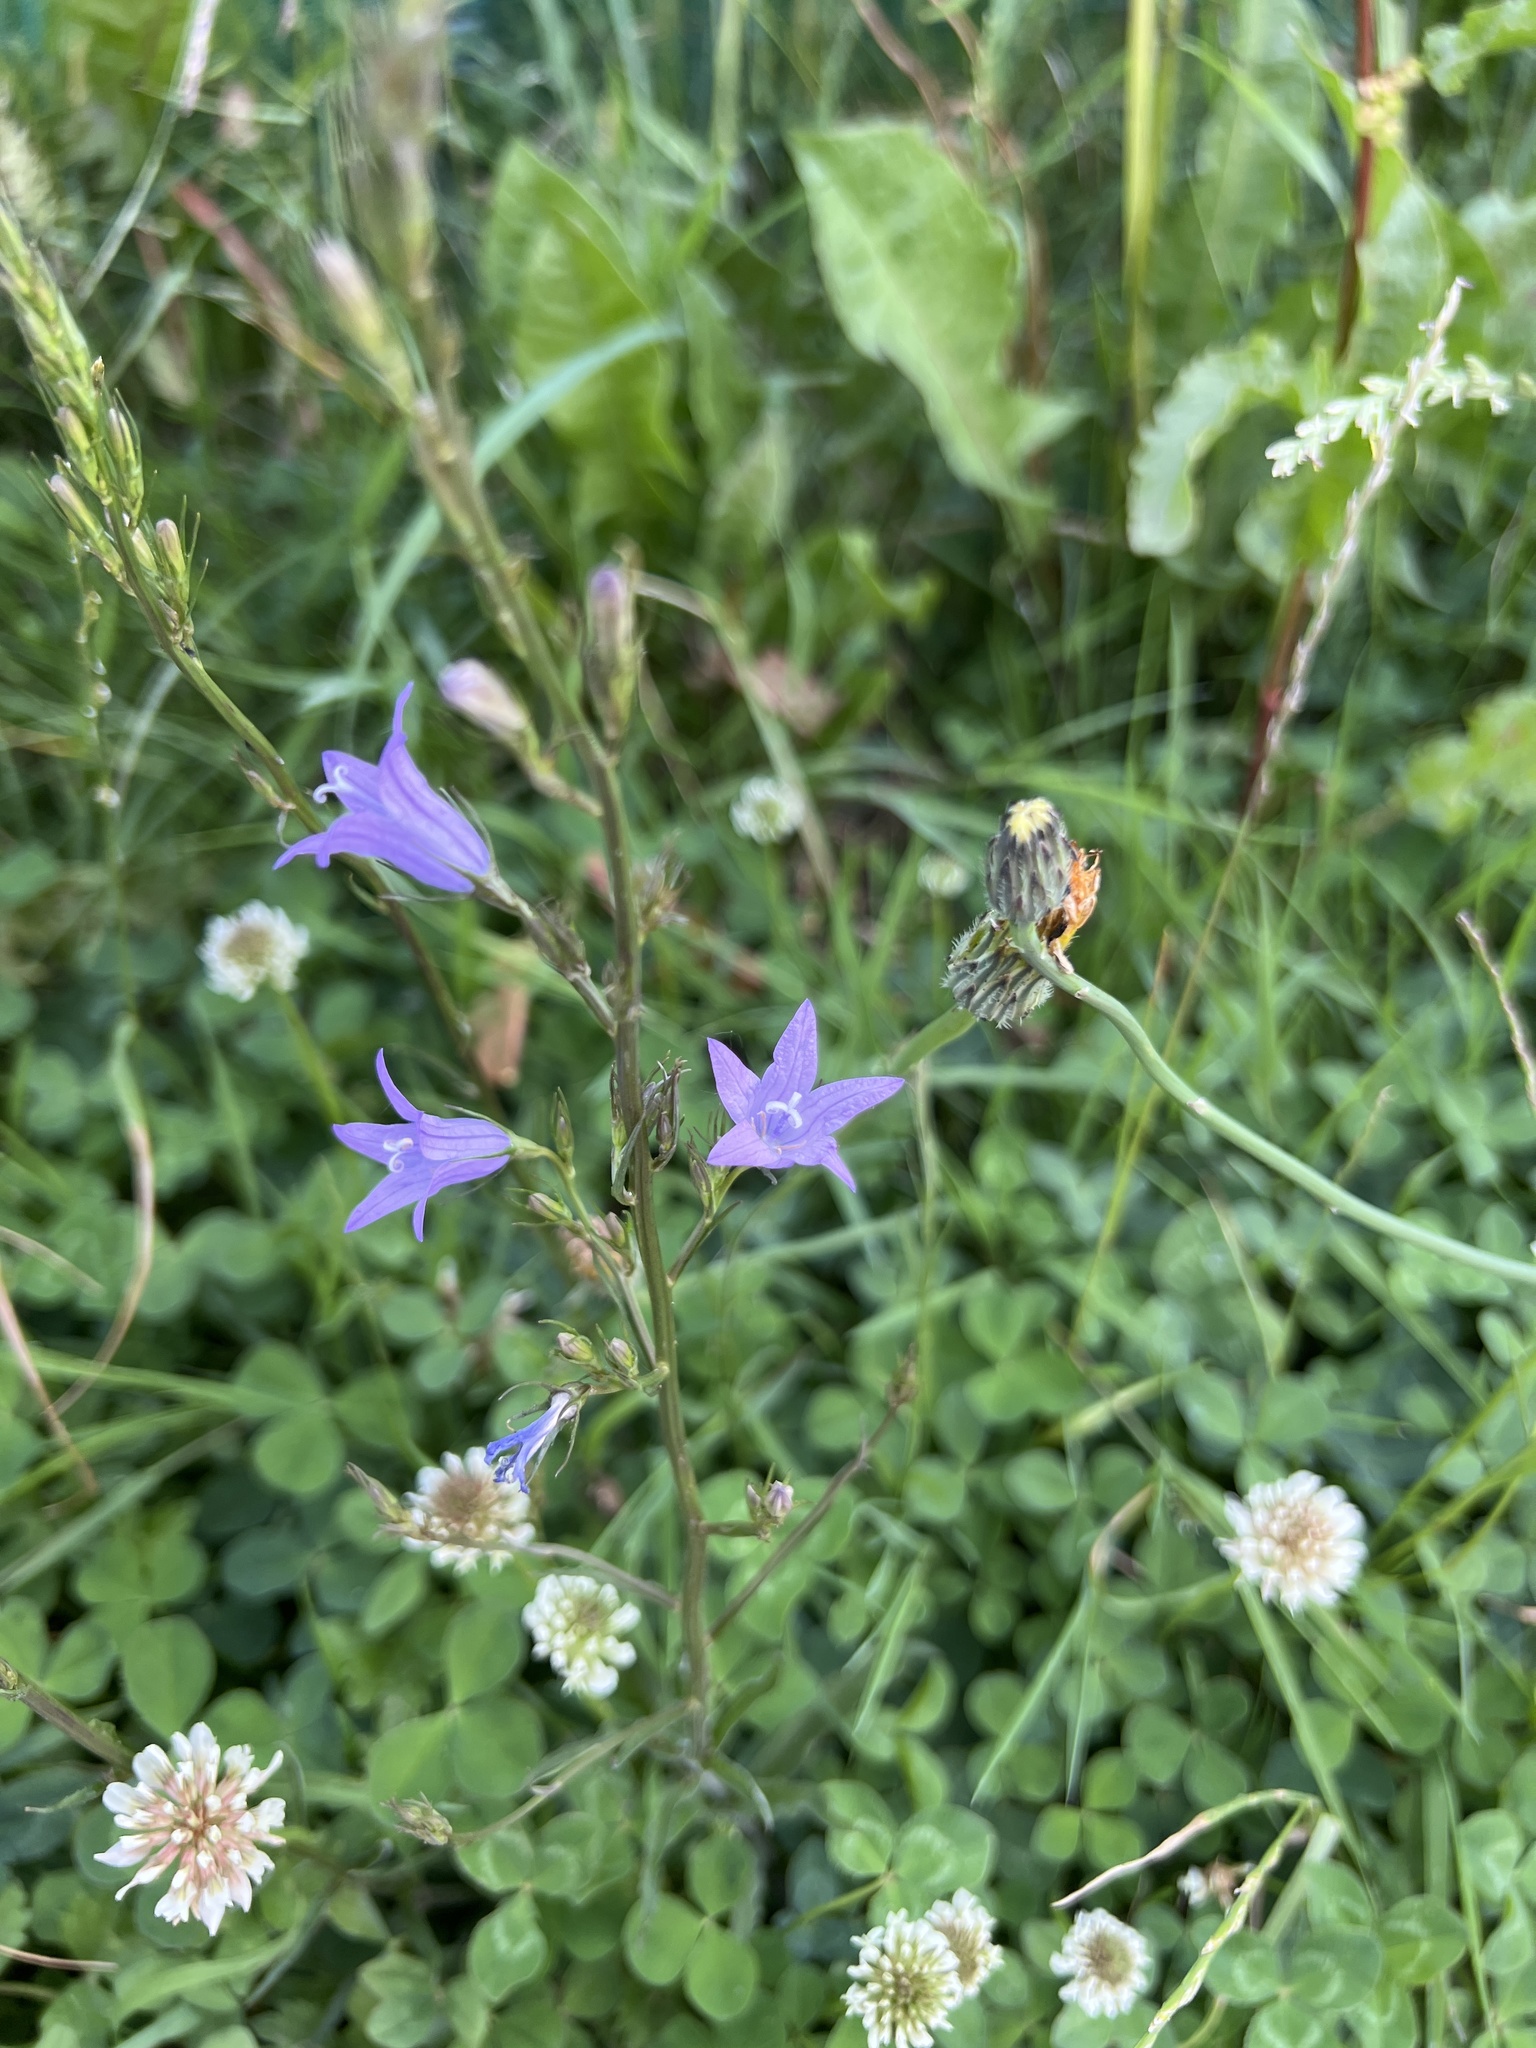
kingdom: Plantae
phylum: Tracheophyta
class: Magnoliopsida
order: Asterales
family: Campanulaceae
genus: Campanula
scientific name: Campanula rapunculus
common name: Rampion bellflower
